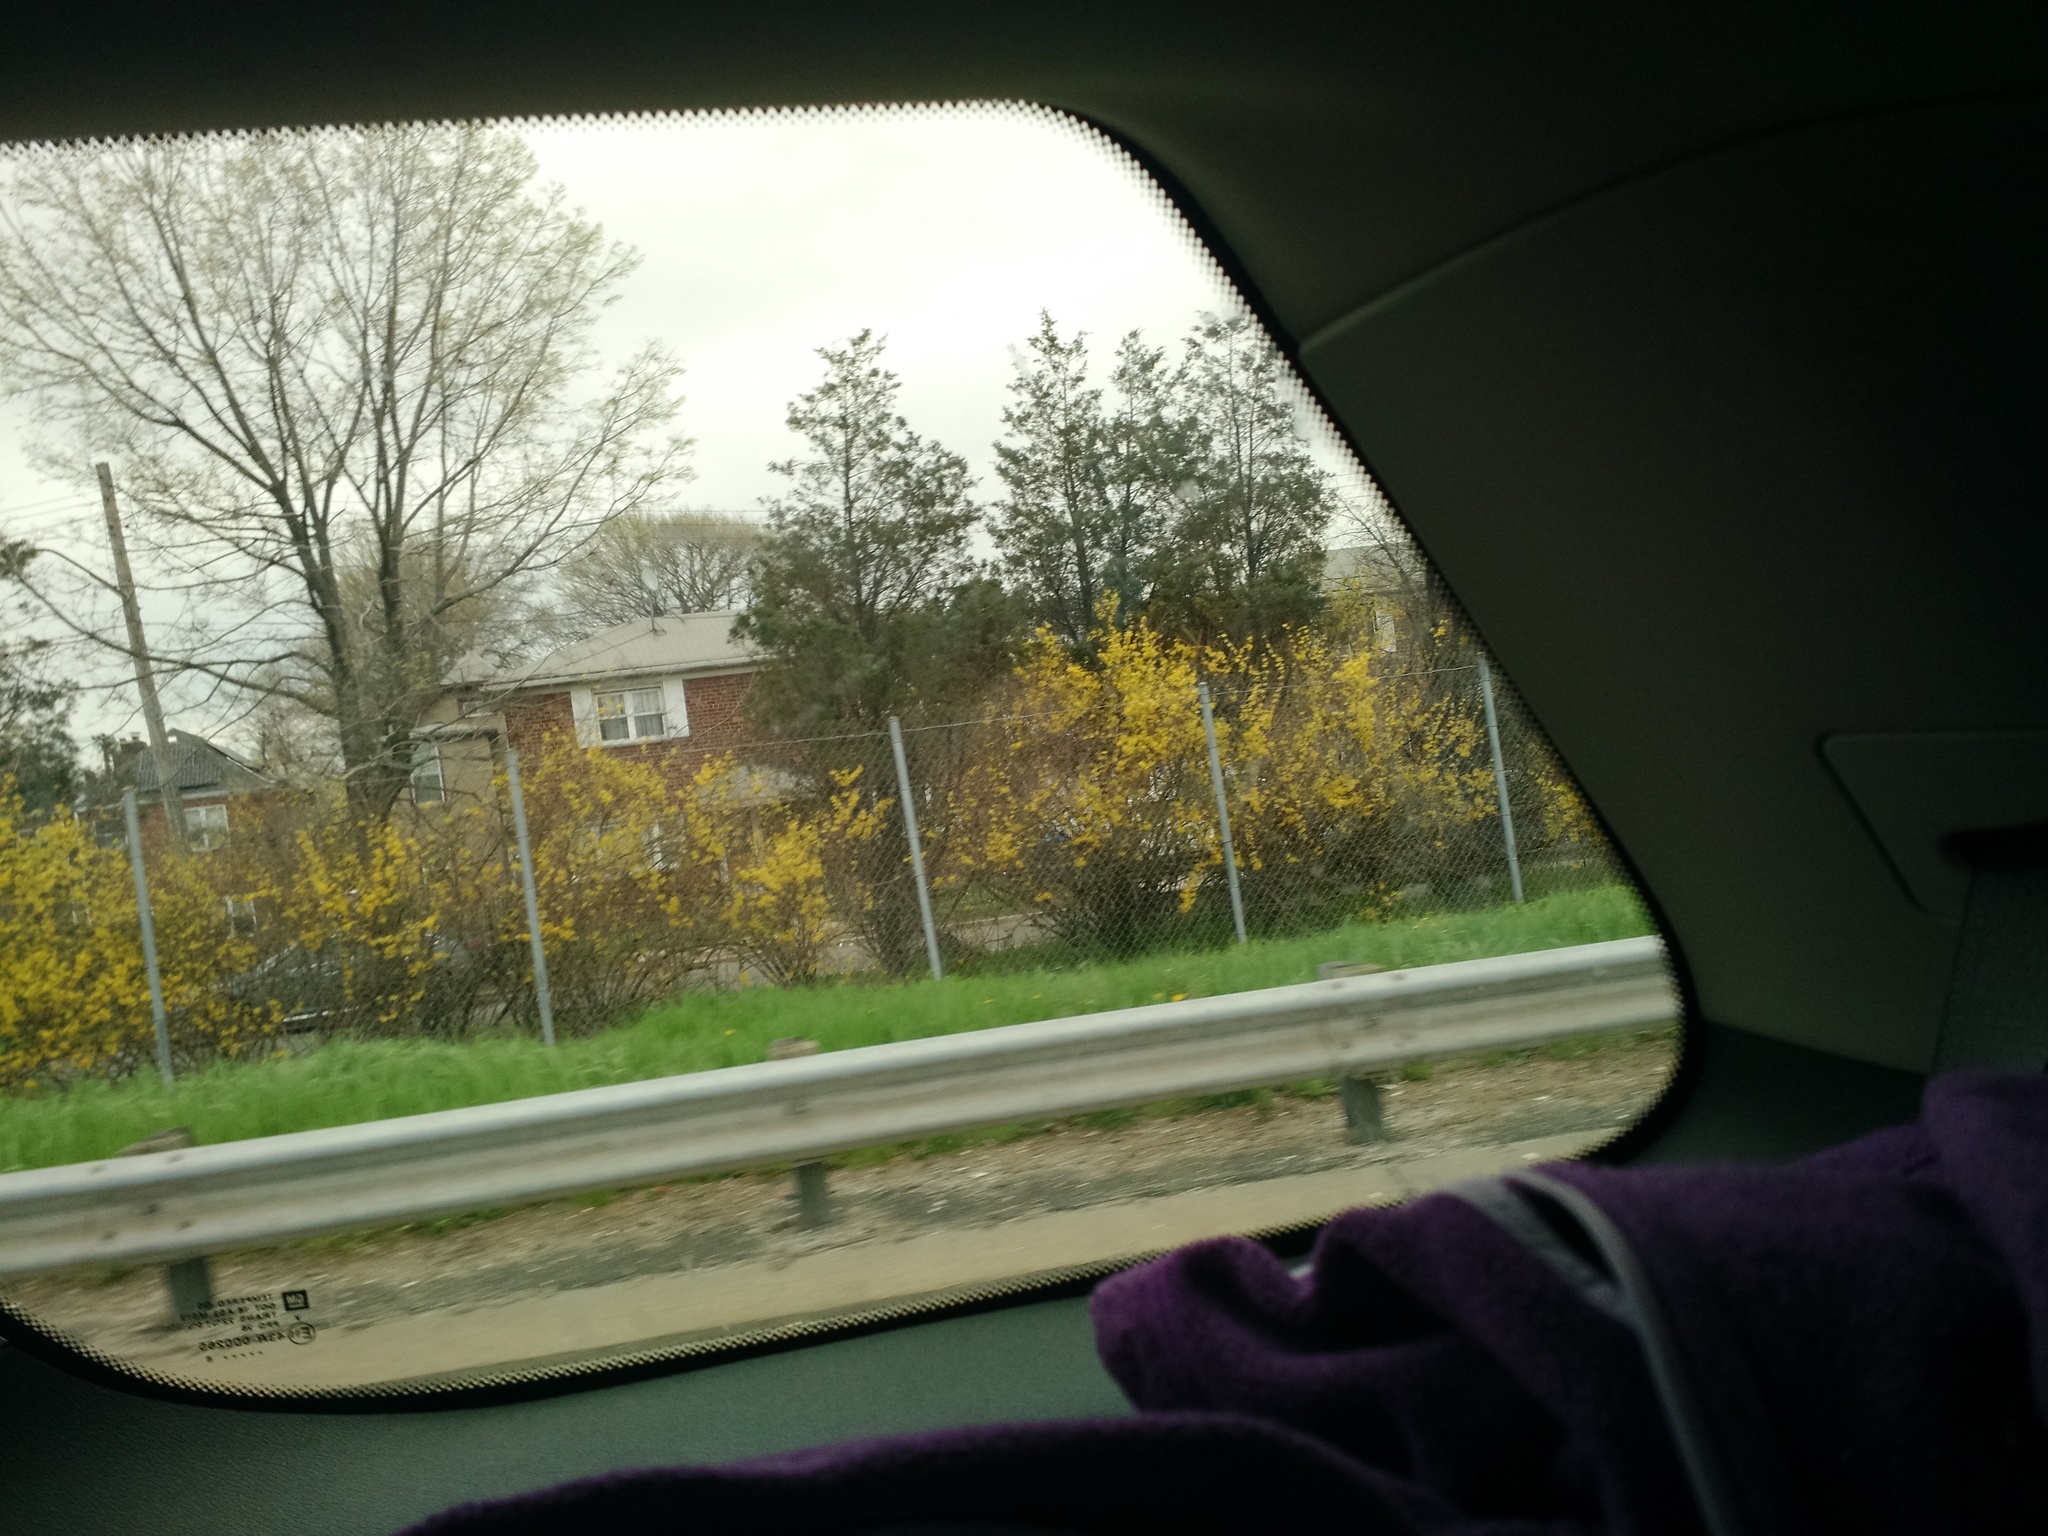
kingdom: Plantae
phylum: Tracheophyta
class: Magnoliopsida
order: Lamiales
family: Oleaceae
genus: Forsythia
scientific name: Forsythia
